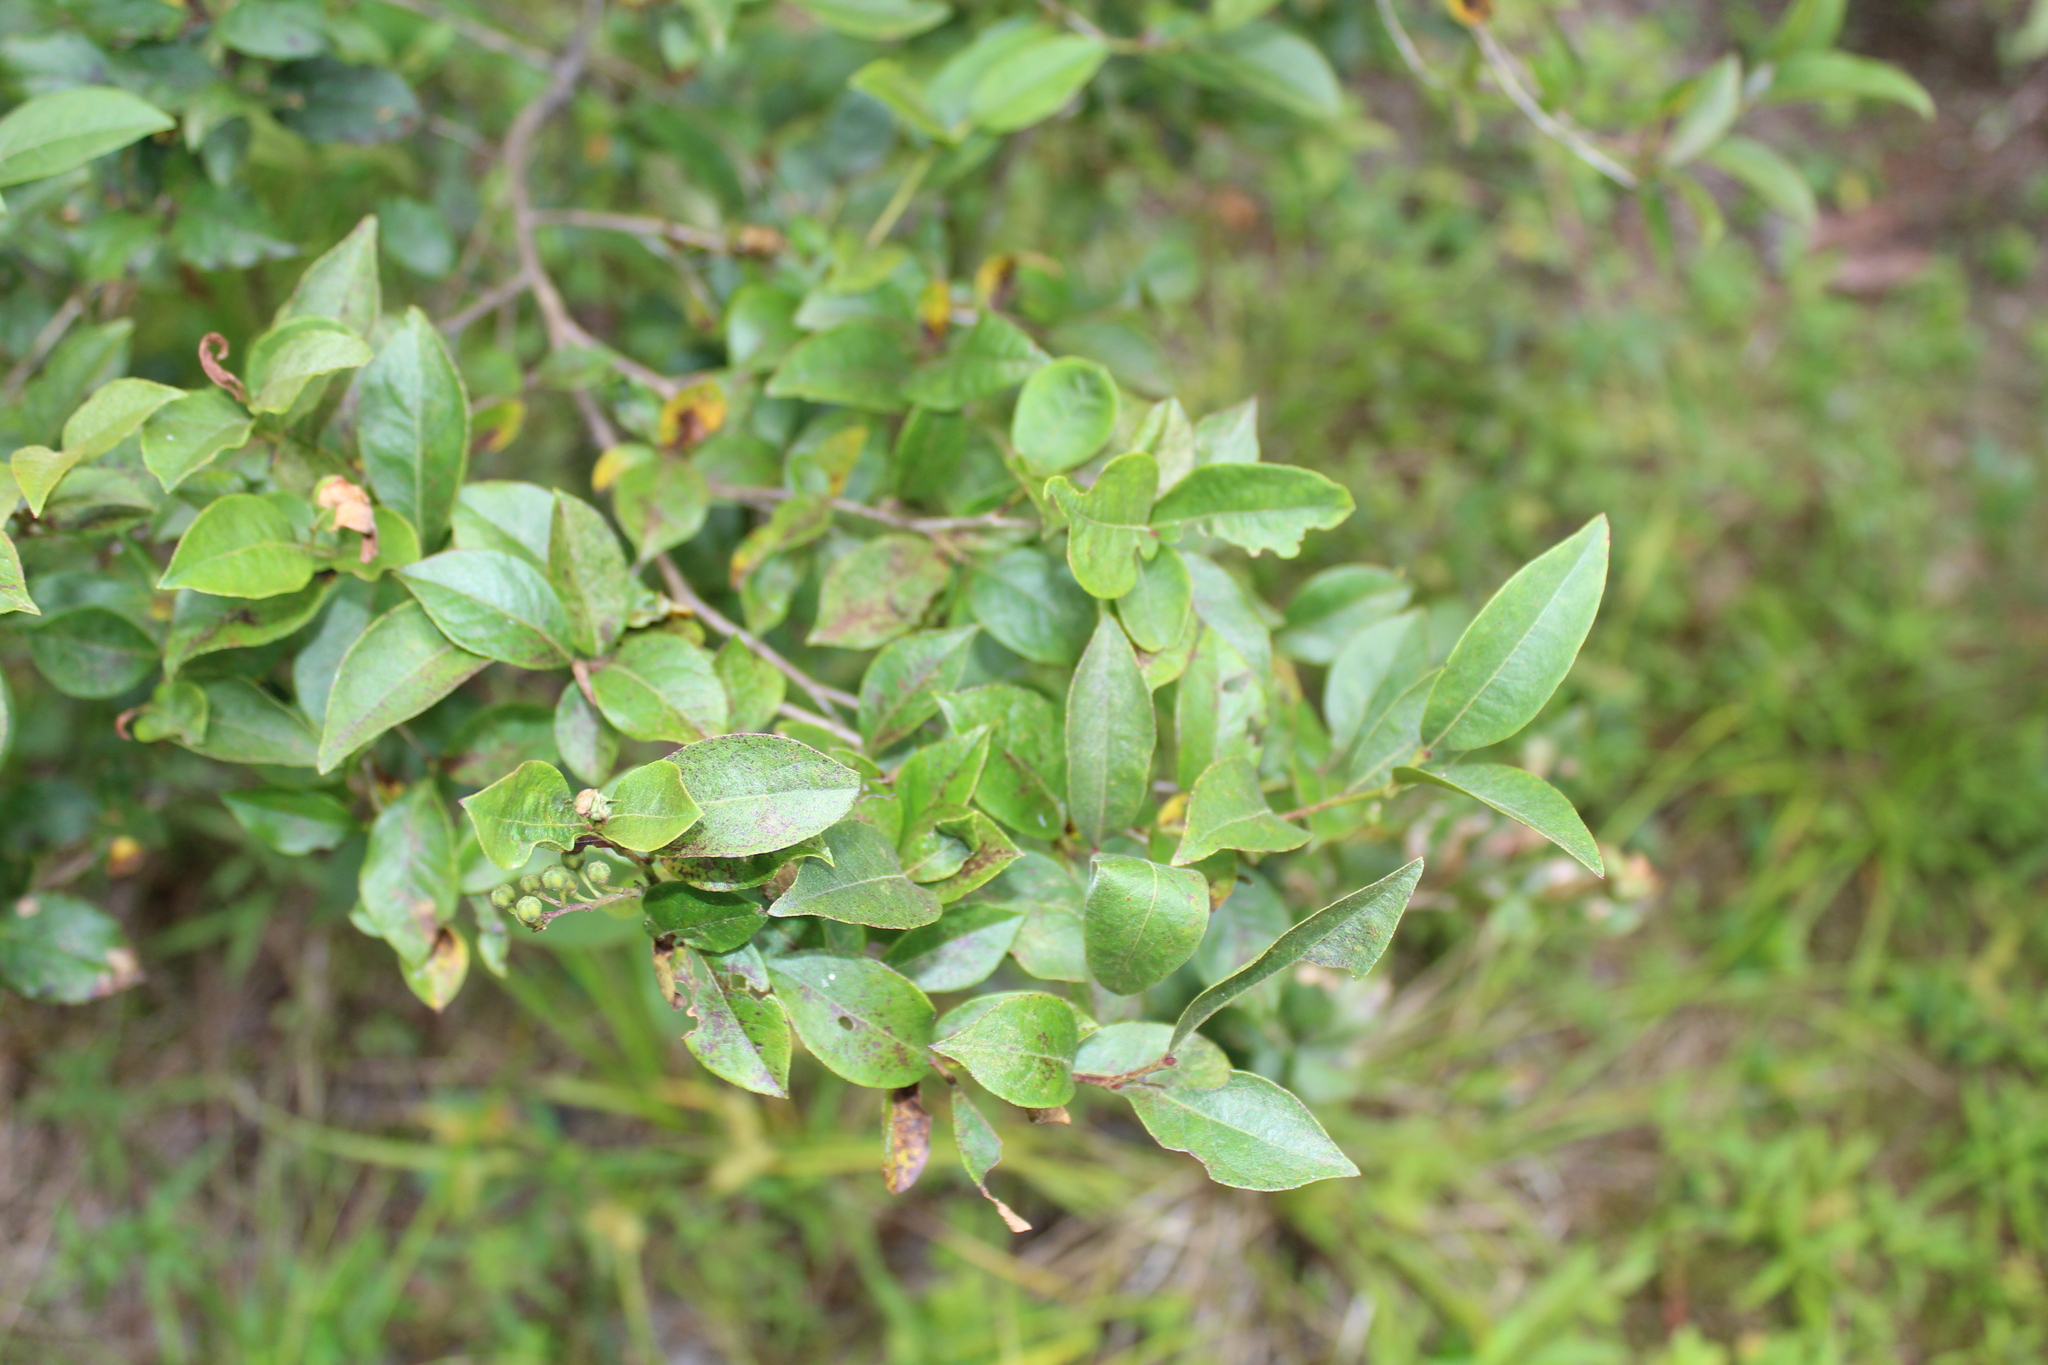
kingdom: Plantae
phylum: Tracheophyta
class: Magnoliopsida
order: Ericales
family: Ericaceae
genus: Lyonia
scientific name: Lyonia ligustrina
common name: Maleberry
